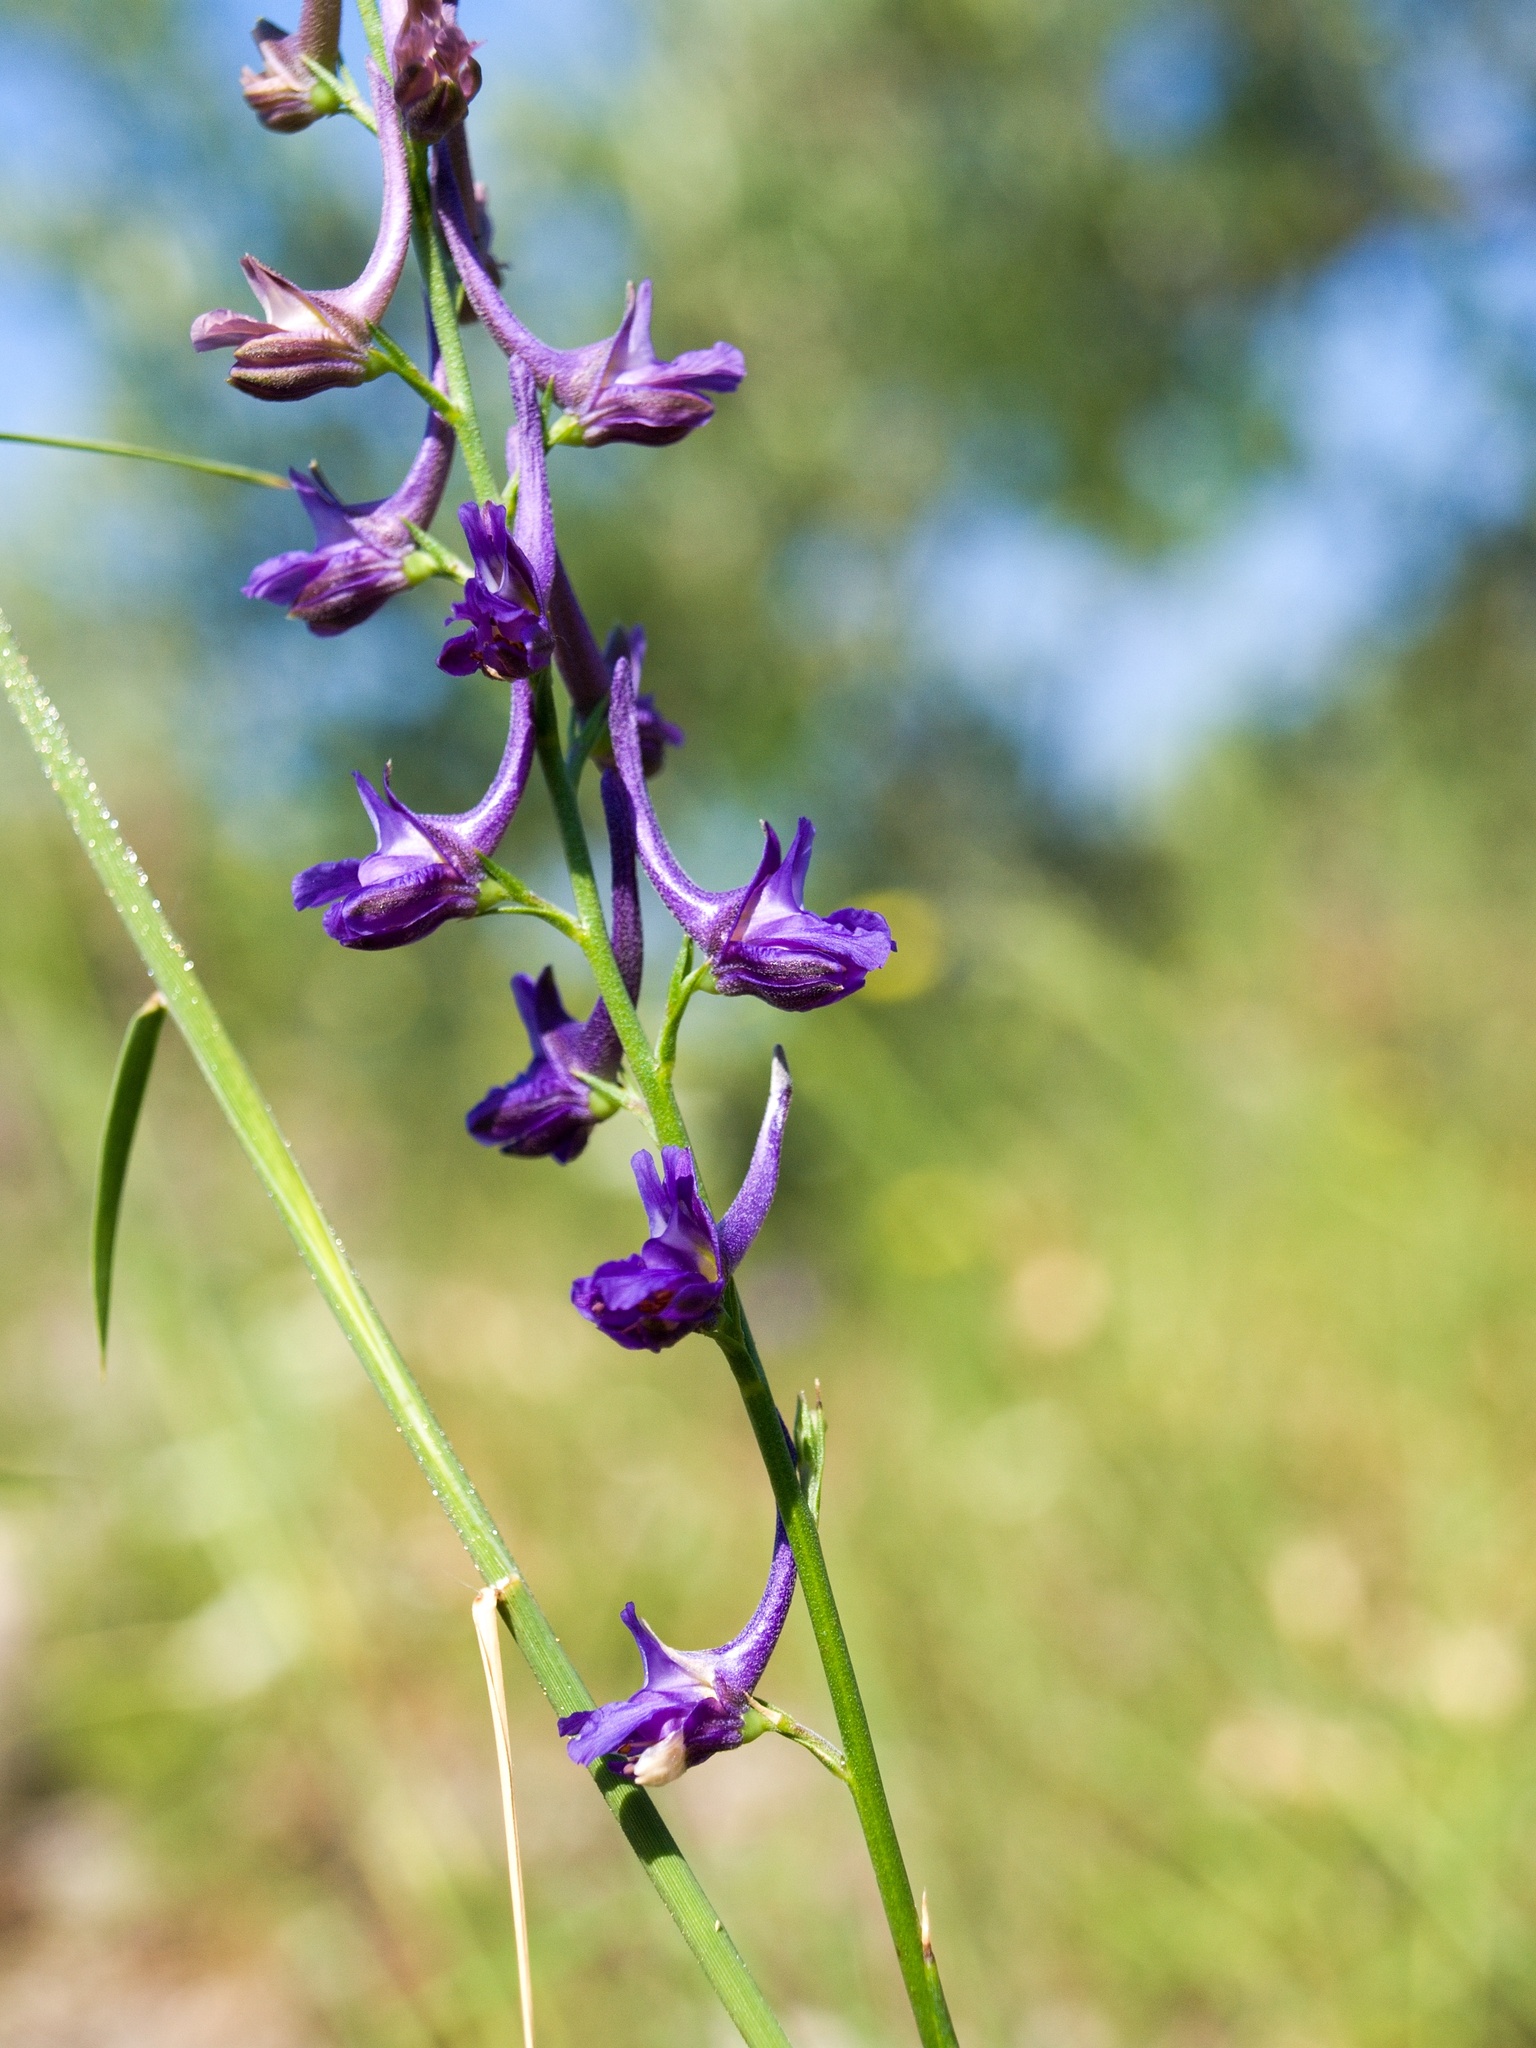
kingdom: Plantae
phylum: Tracheophyta
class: Magnoliopsida
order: Ranunculales
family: Ranunculaceae
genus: Delphinium
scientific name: Delphinium peregrinum
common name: Violet larkspur
